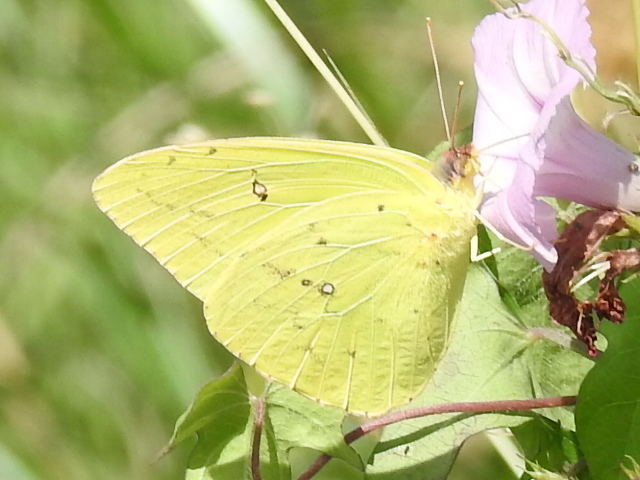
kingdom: Animalia
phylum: Arthropoda
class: Insecta
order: Lepidoptera
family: Pieridae
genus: Phoebis
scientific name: Phoebis sennae
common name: Cloudless sulphur
